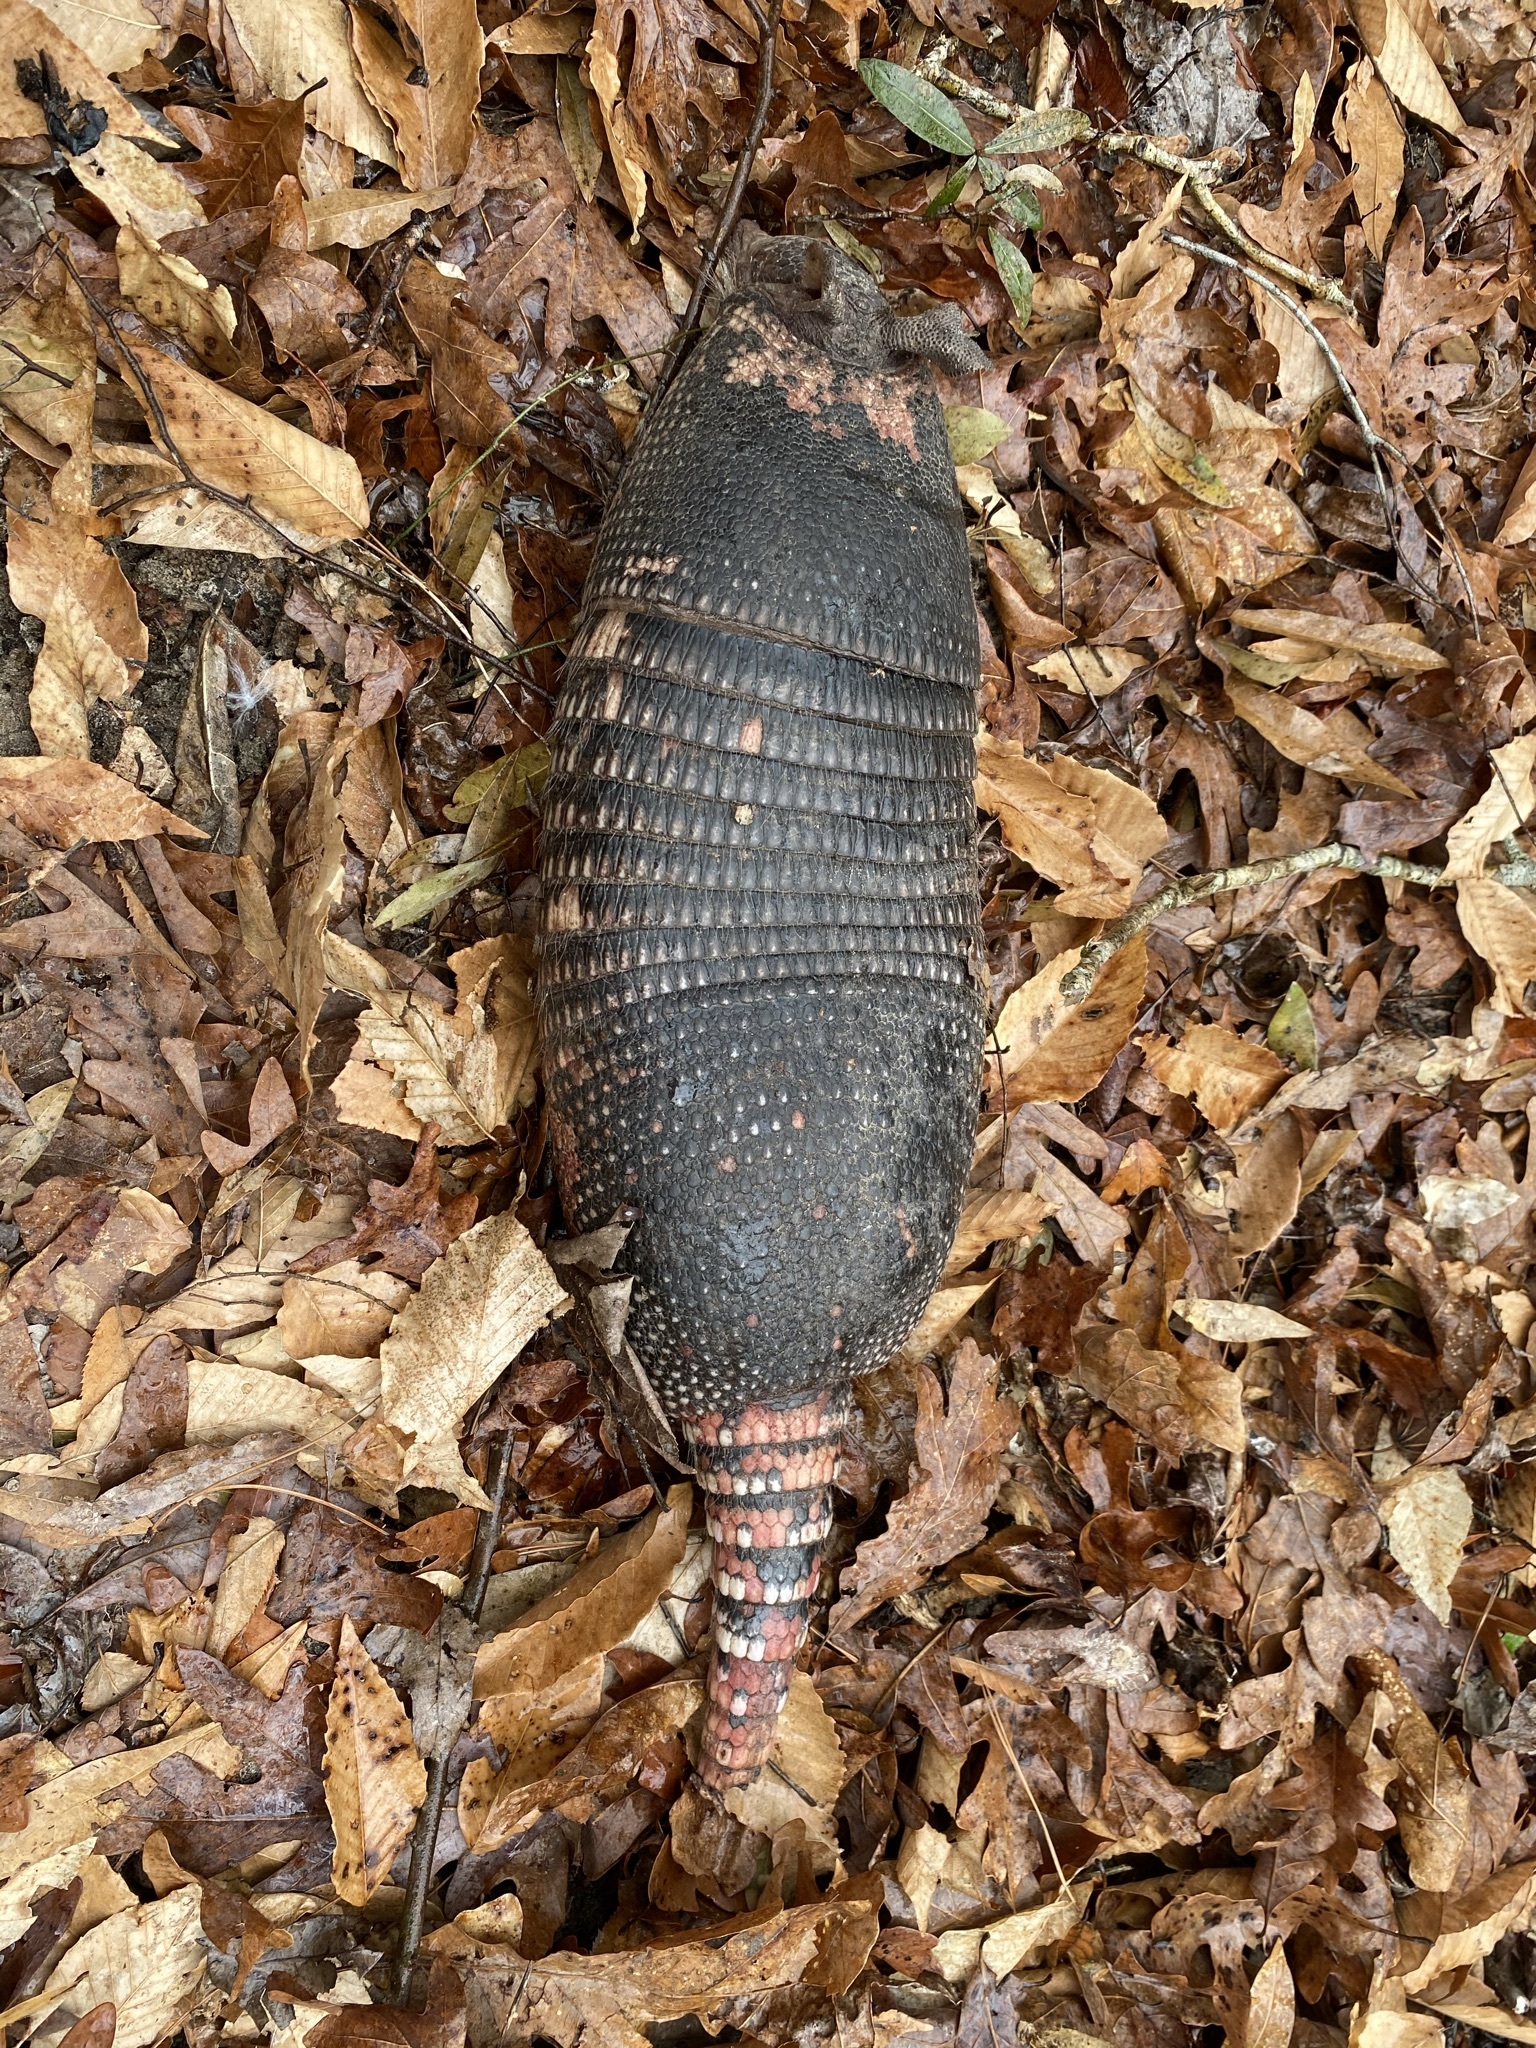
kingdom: Animalia
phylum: Chordata
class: Mammalia
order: Cingulata
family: Dasypodidae
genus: Dasypus
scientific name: Dasypus novemcinctus
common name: Nine-banded armadillo
